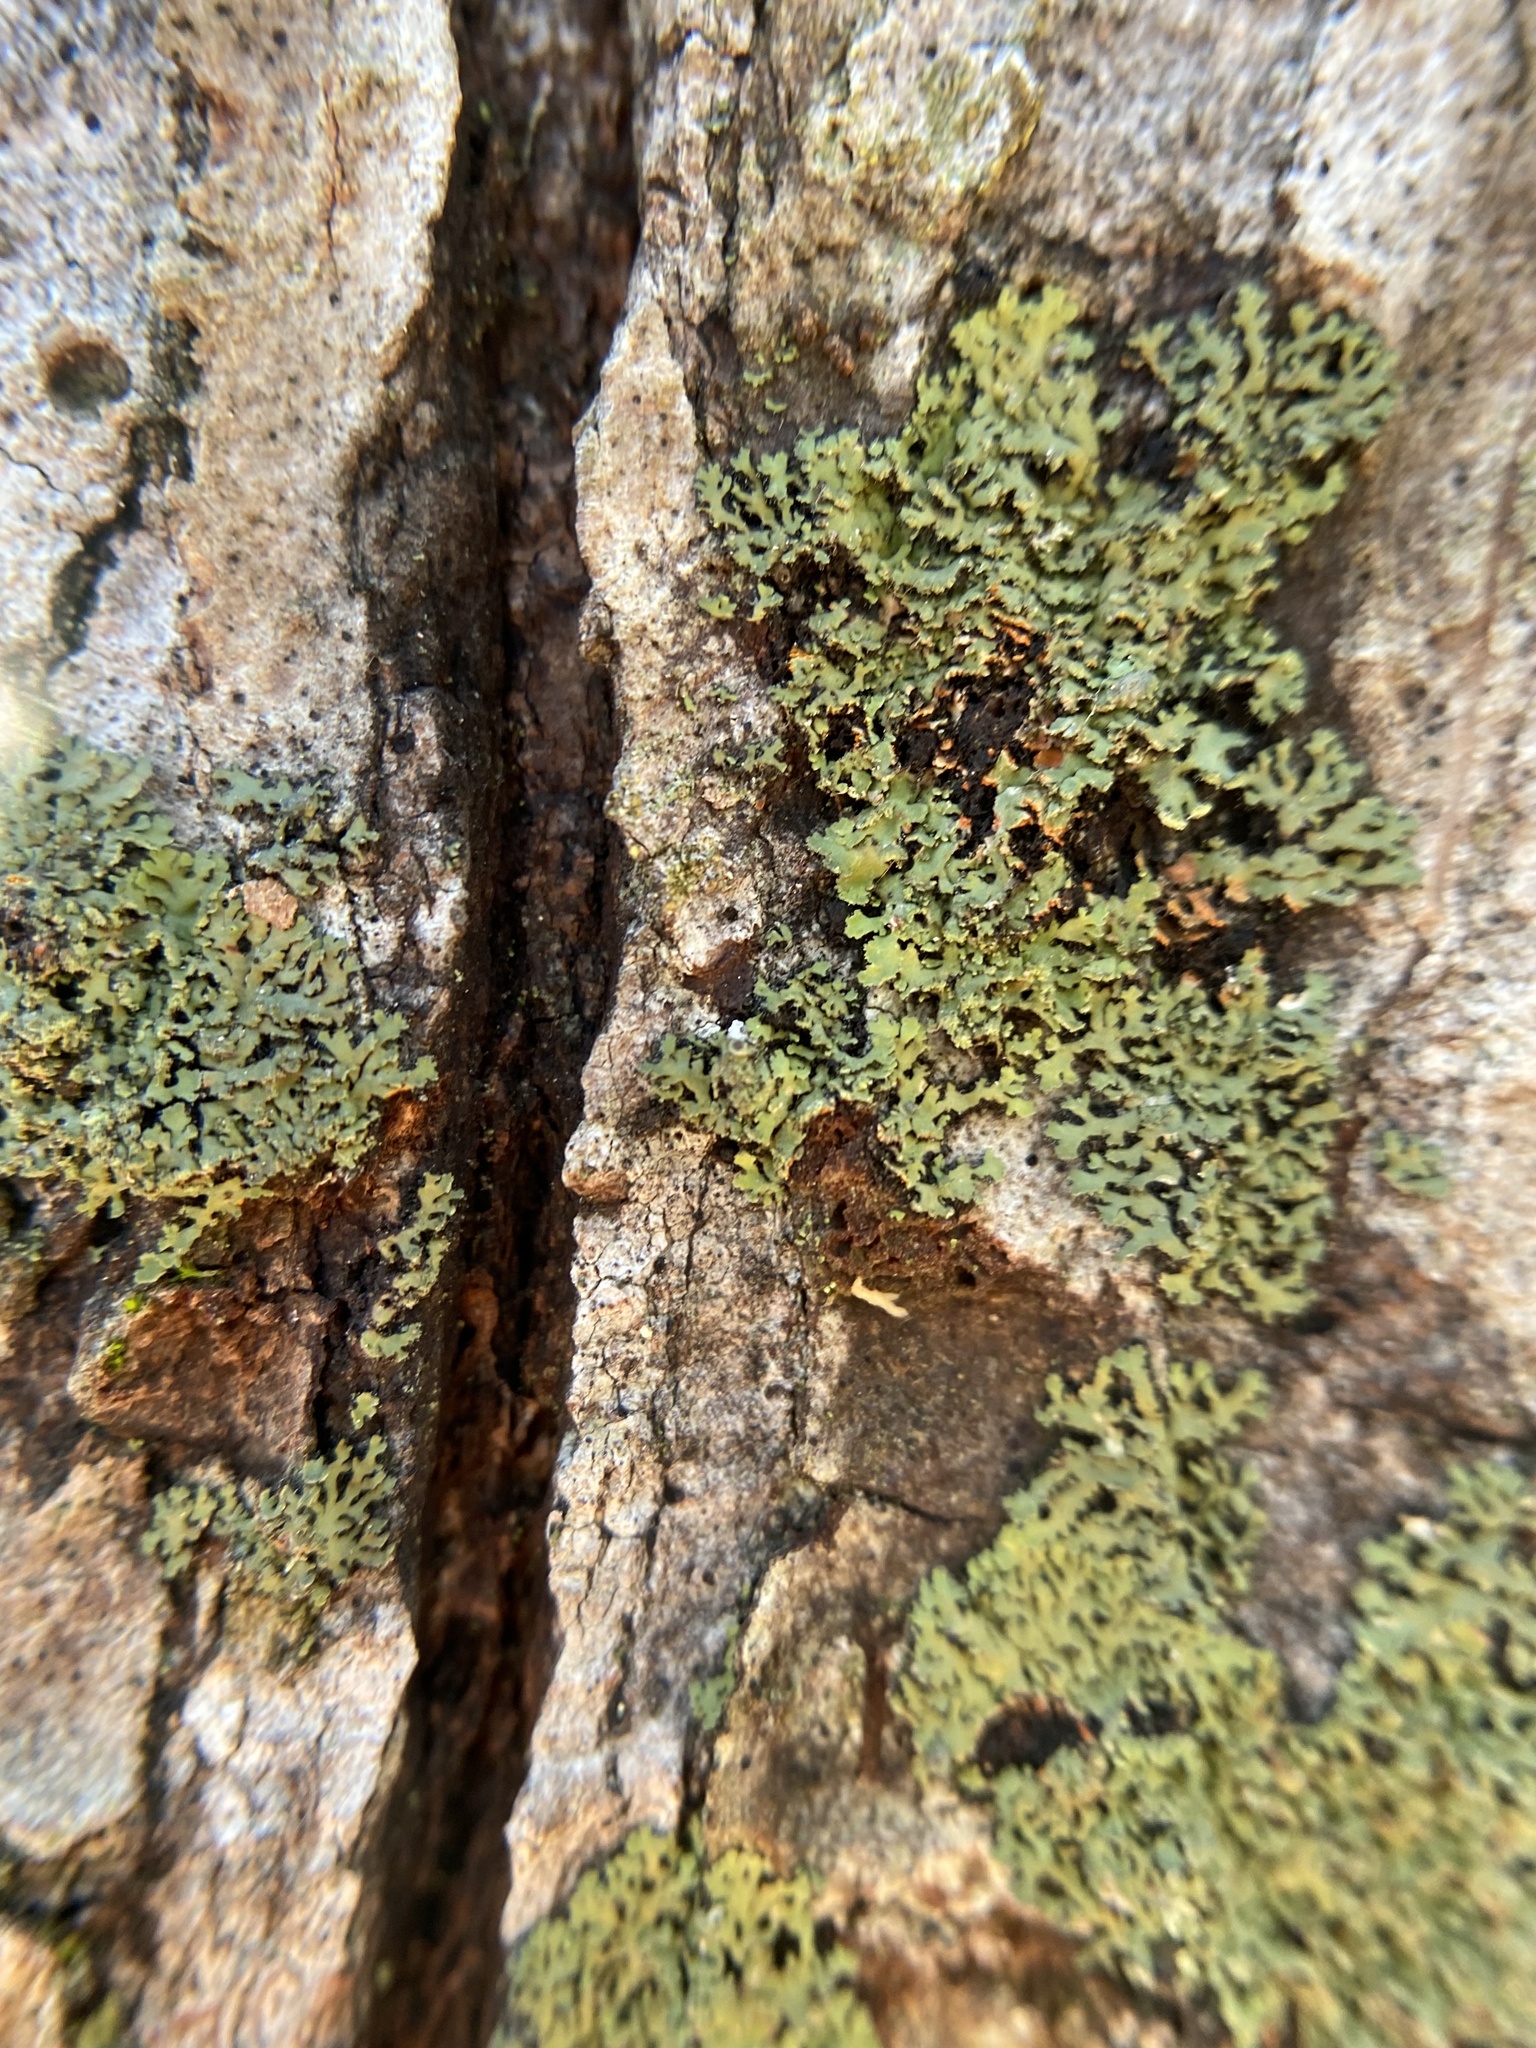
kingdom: Fungi
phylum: Ascomycota
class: Lecanoromycetes
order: Caliciales
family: Physciaceae
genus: Phaeophyscia
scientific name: Phaeophyscia rubropulchra
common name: Orange-cored shadow lichen
